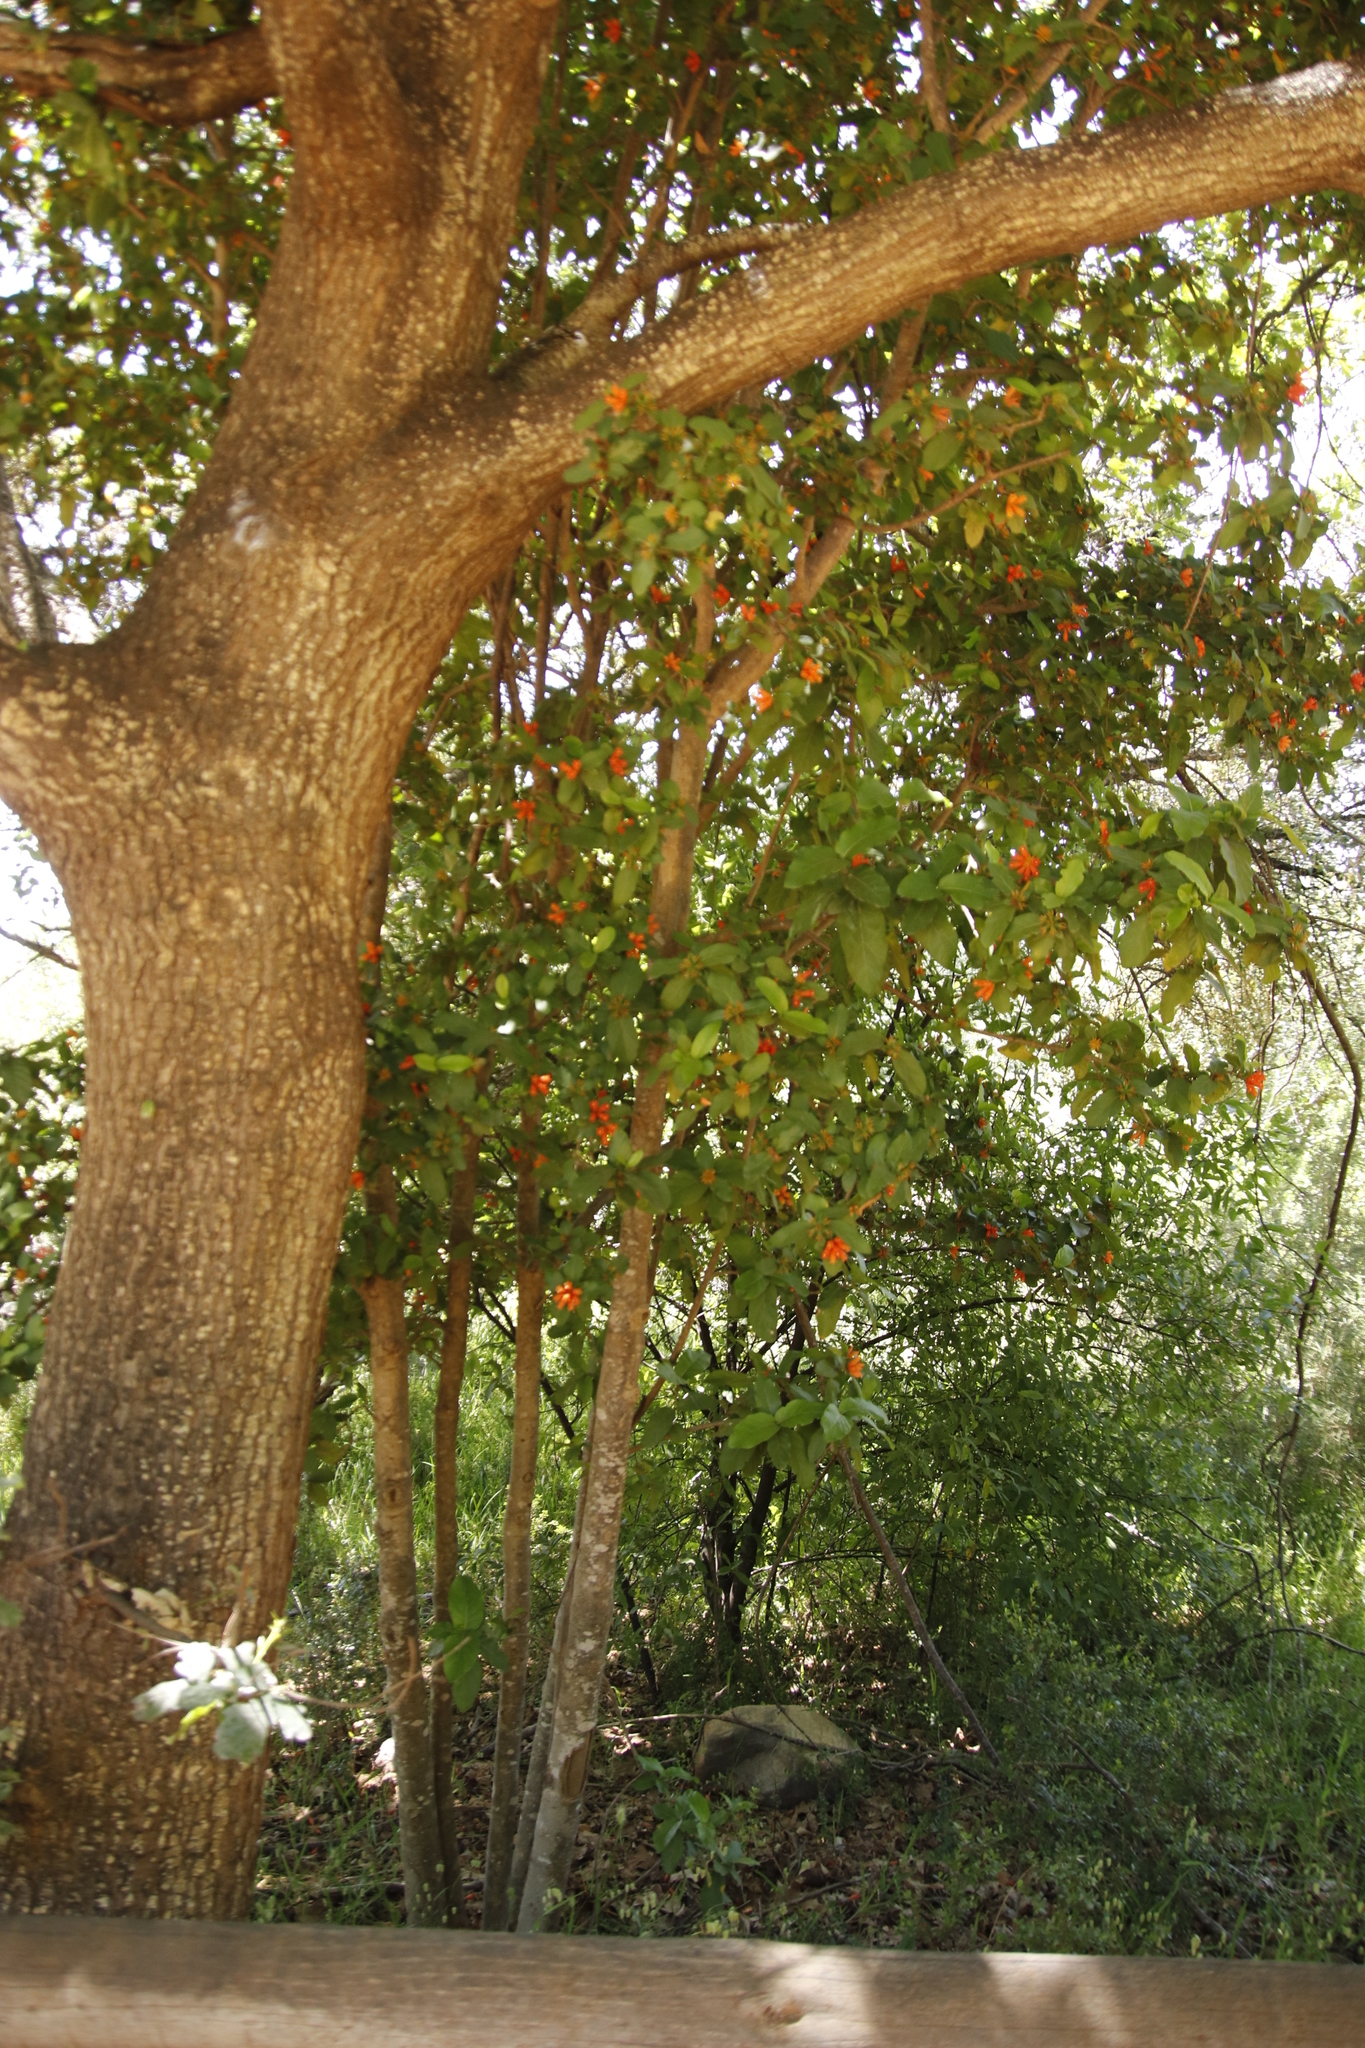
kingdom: Plantae
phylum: Tracheophyta
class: Magnoliopsida
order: Gentianales
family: Rubiaceae
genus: Burchellia
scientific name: Burchellia bubalina
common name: Wild pomegranate
